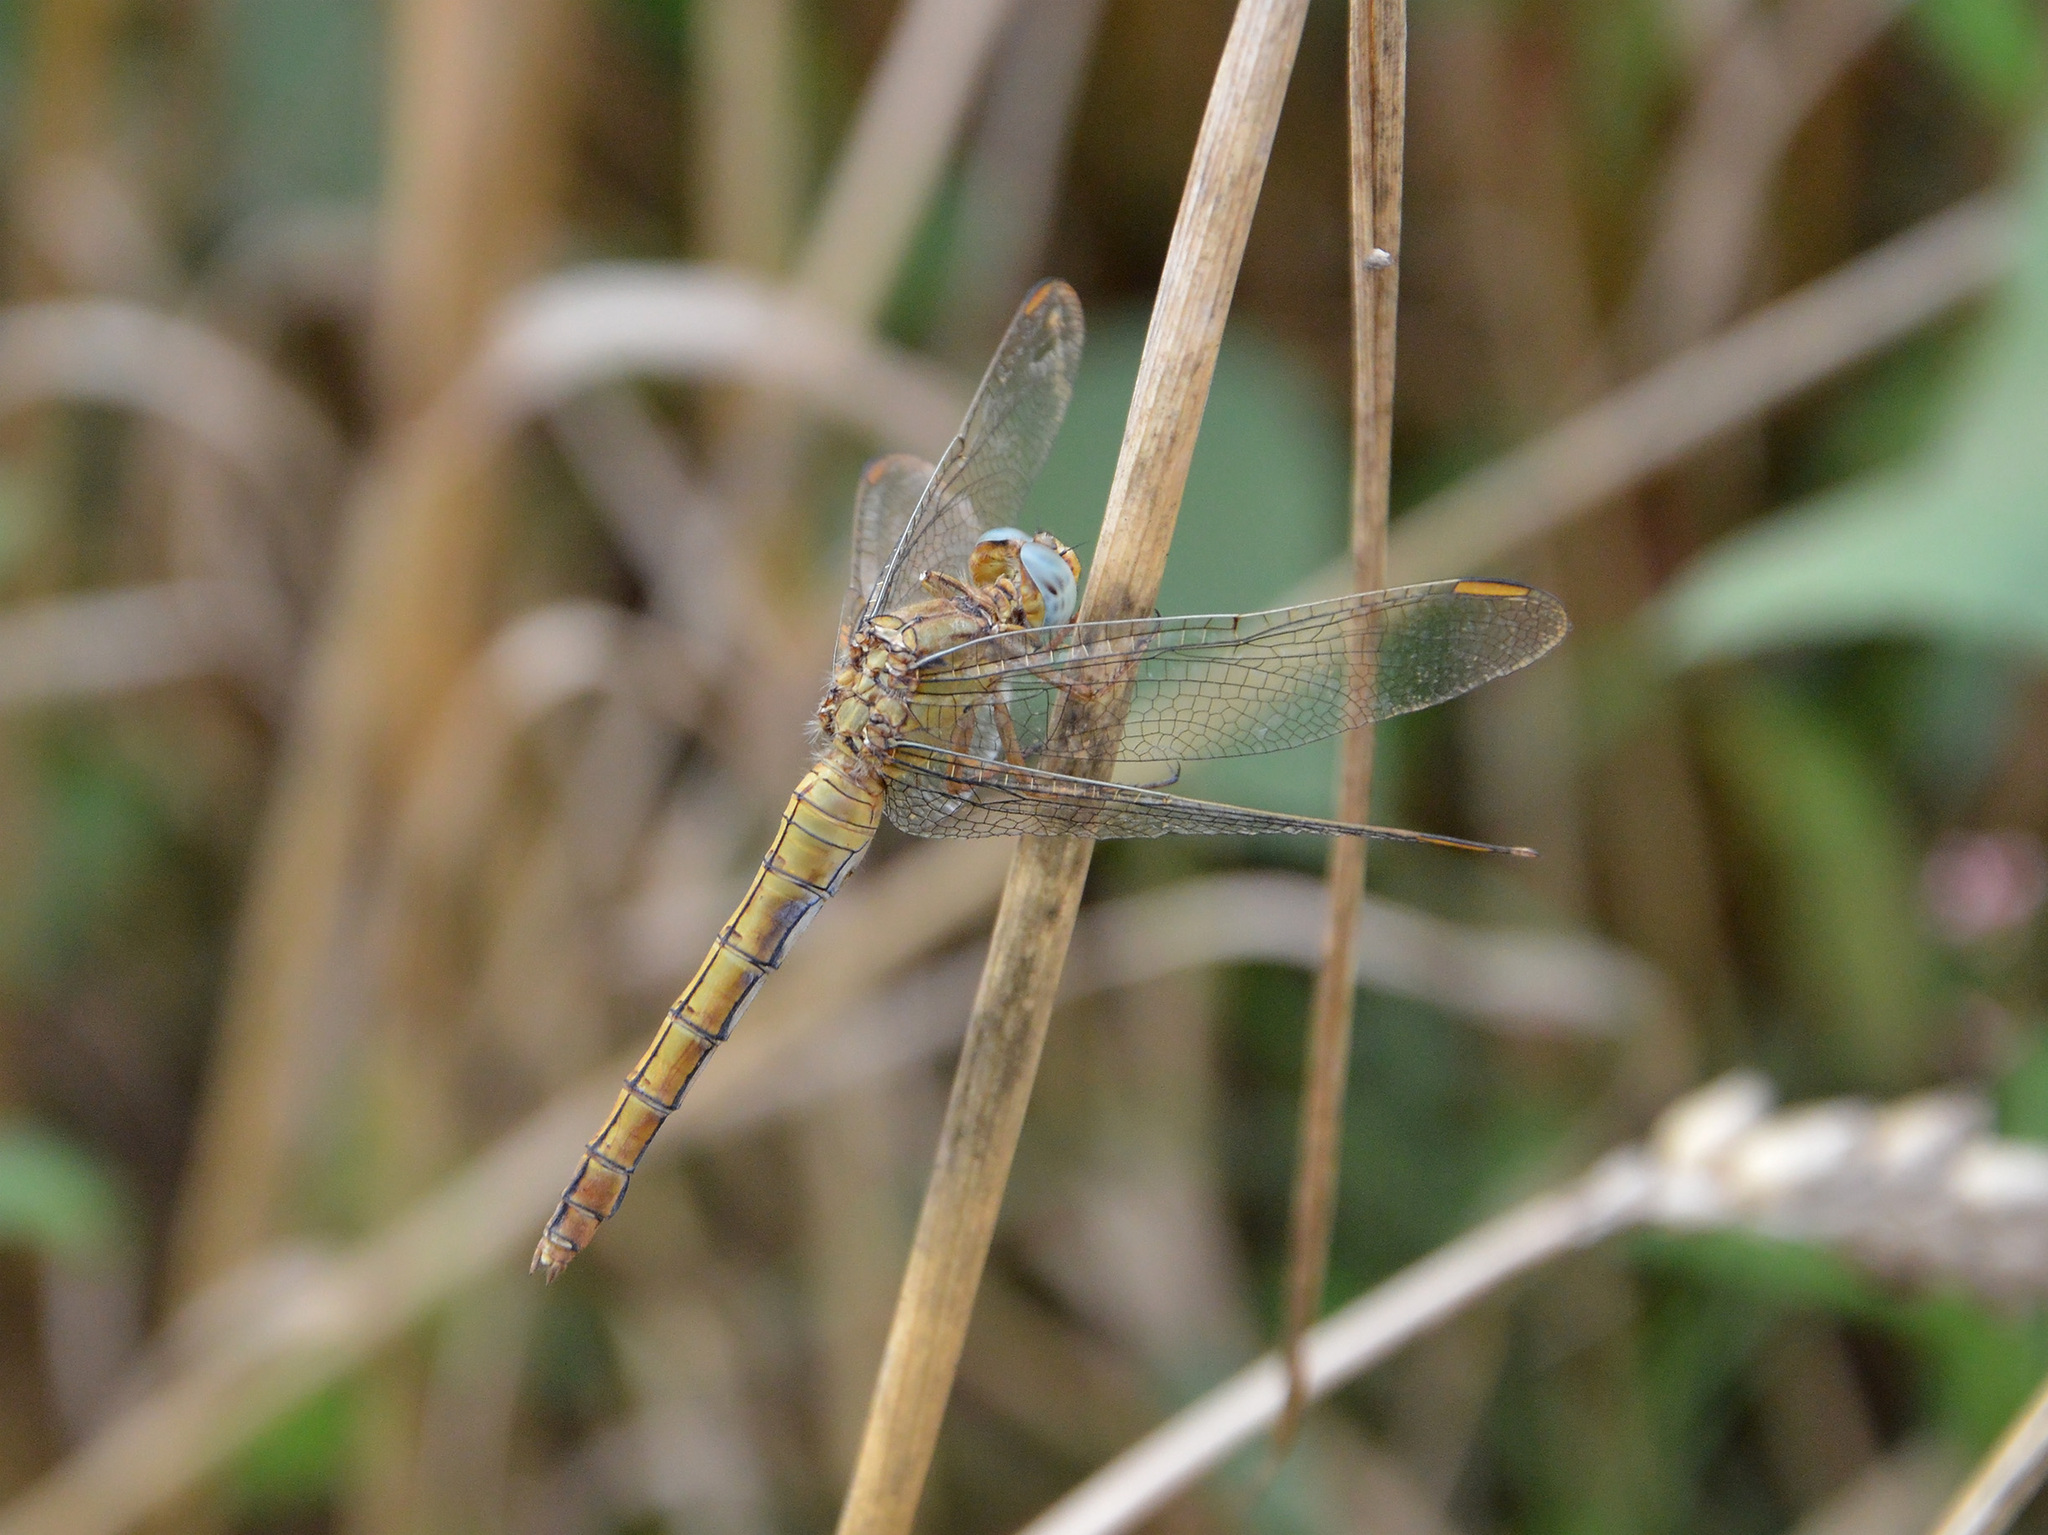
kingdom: Animalia
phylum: Arthropoda
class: Insecta
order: Odonata
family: Libellulidae
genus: Orthetrum
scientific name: Orthetrum coerulescens
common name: Keeled skimmer
